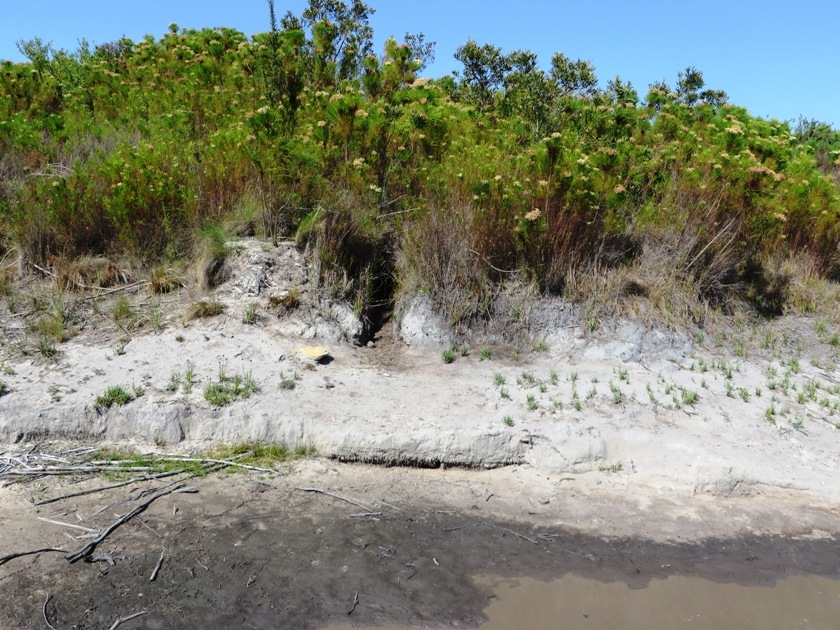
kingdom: Animalia
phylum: Chordata
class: Mammalia
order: Carnivora
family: Herpestidae
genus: Atilax
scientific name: Atilax paludinosus
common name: Marsh mongoose
